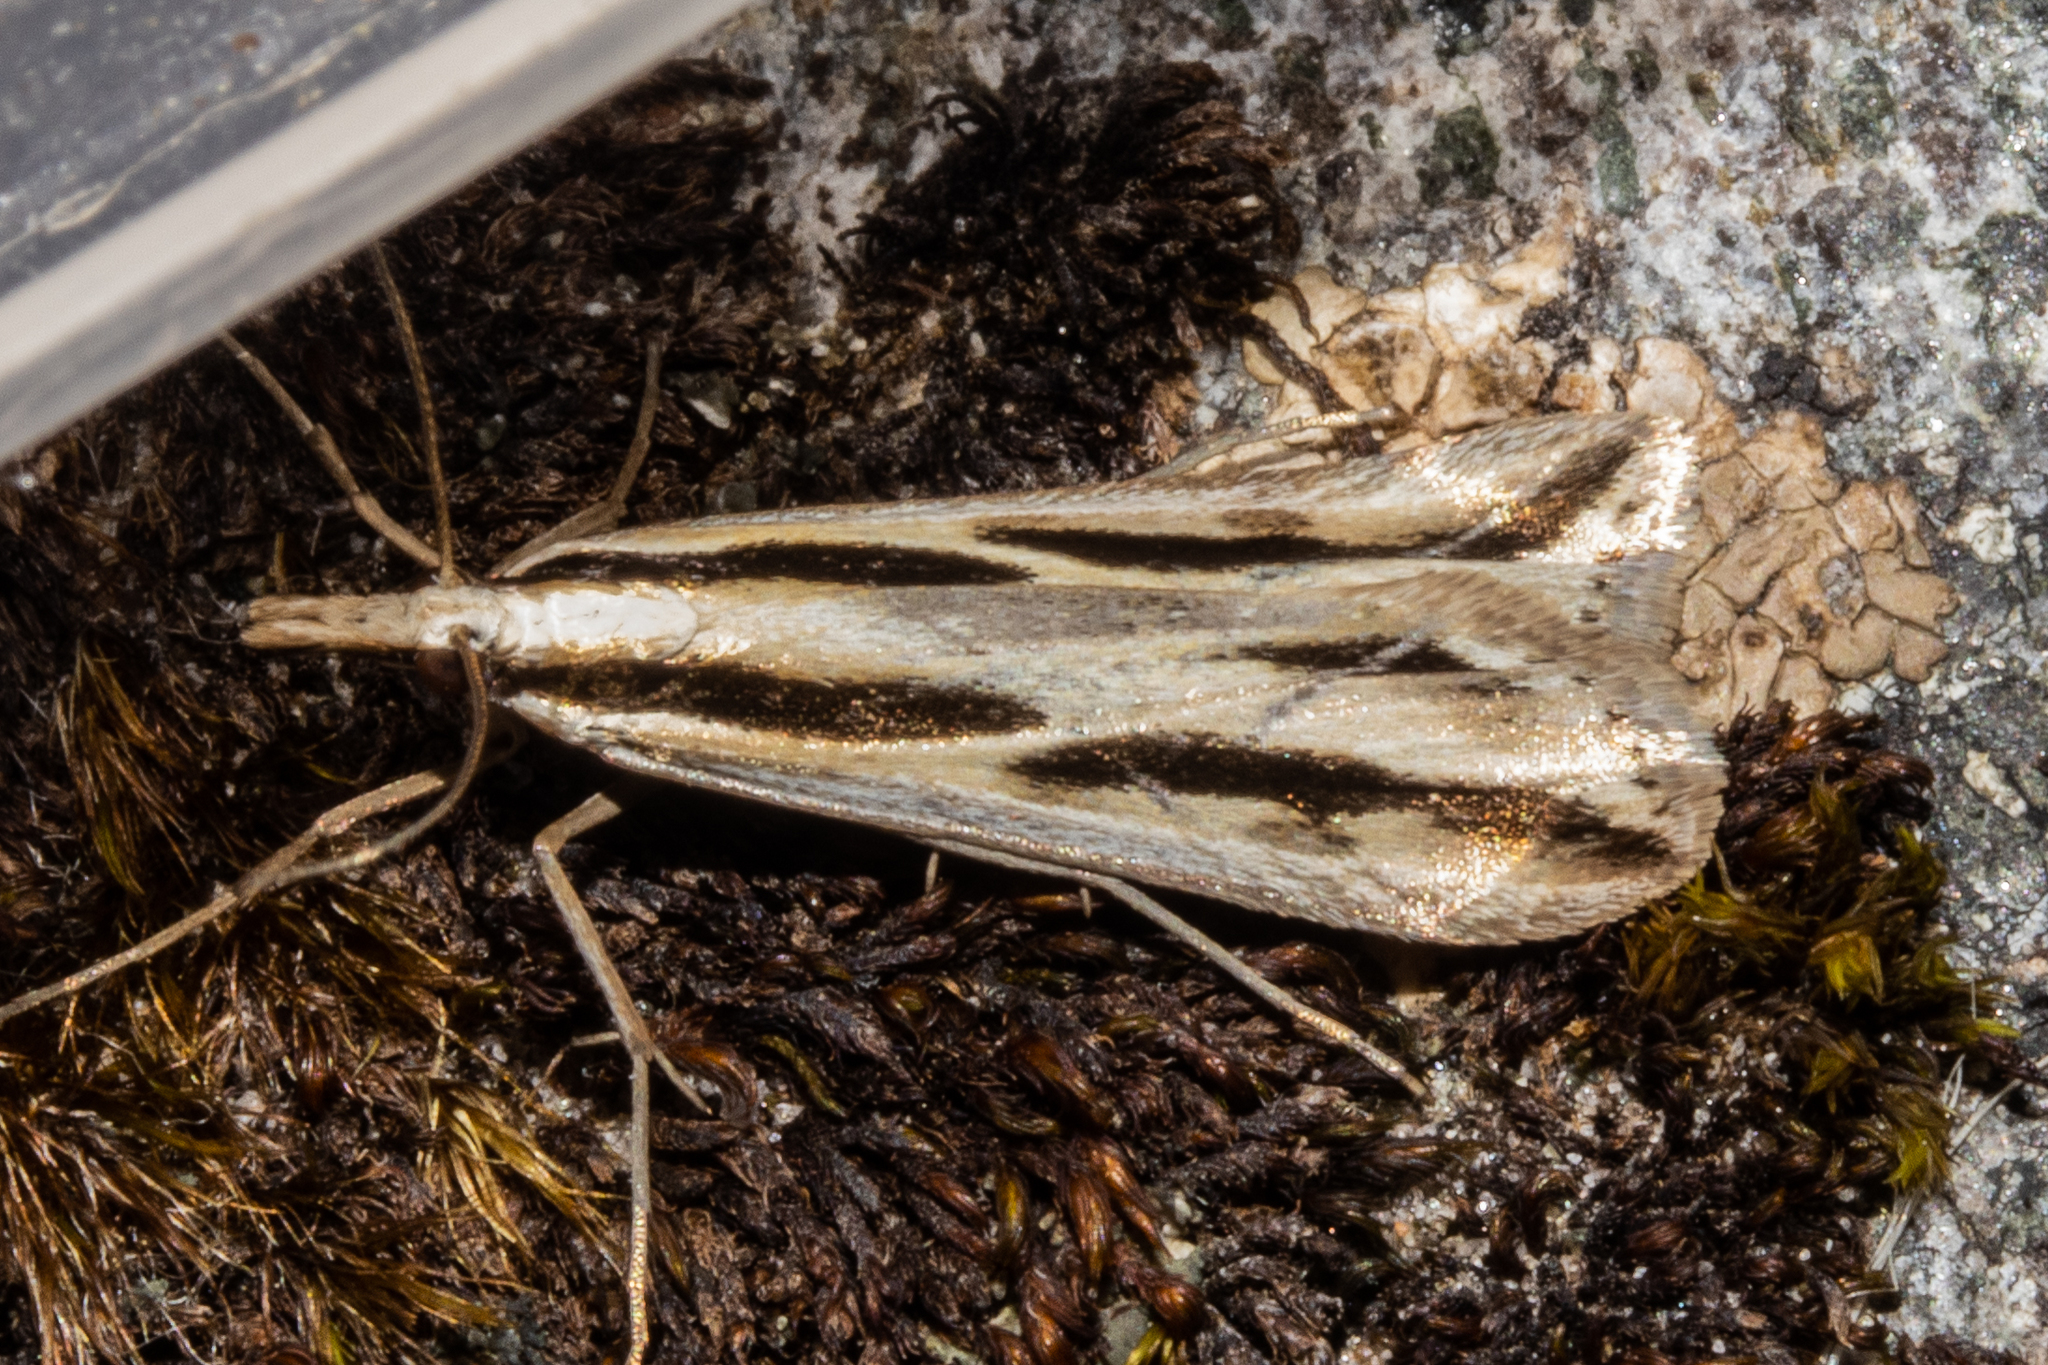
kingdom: Animalia
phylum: Arthropoda
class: Insecta
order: Lepidoptera
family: Crambidae
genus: Eudonia
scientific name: Eudonia trivirgata
